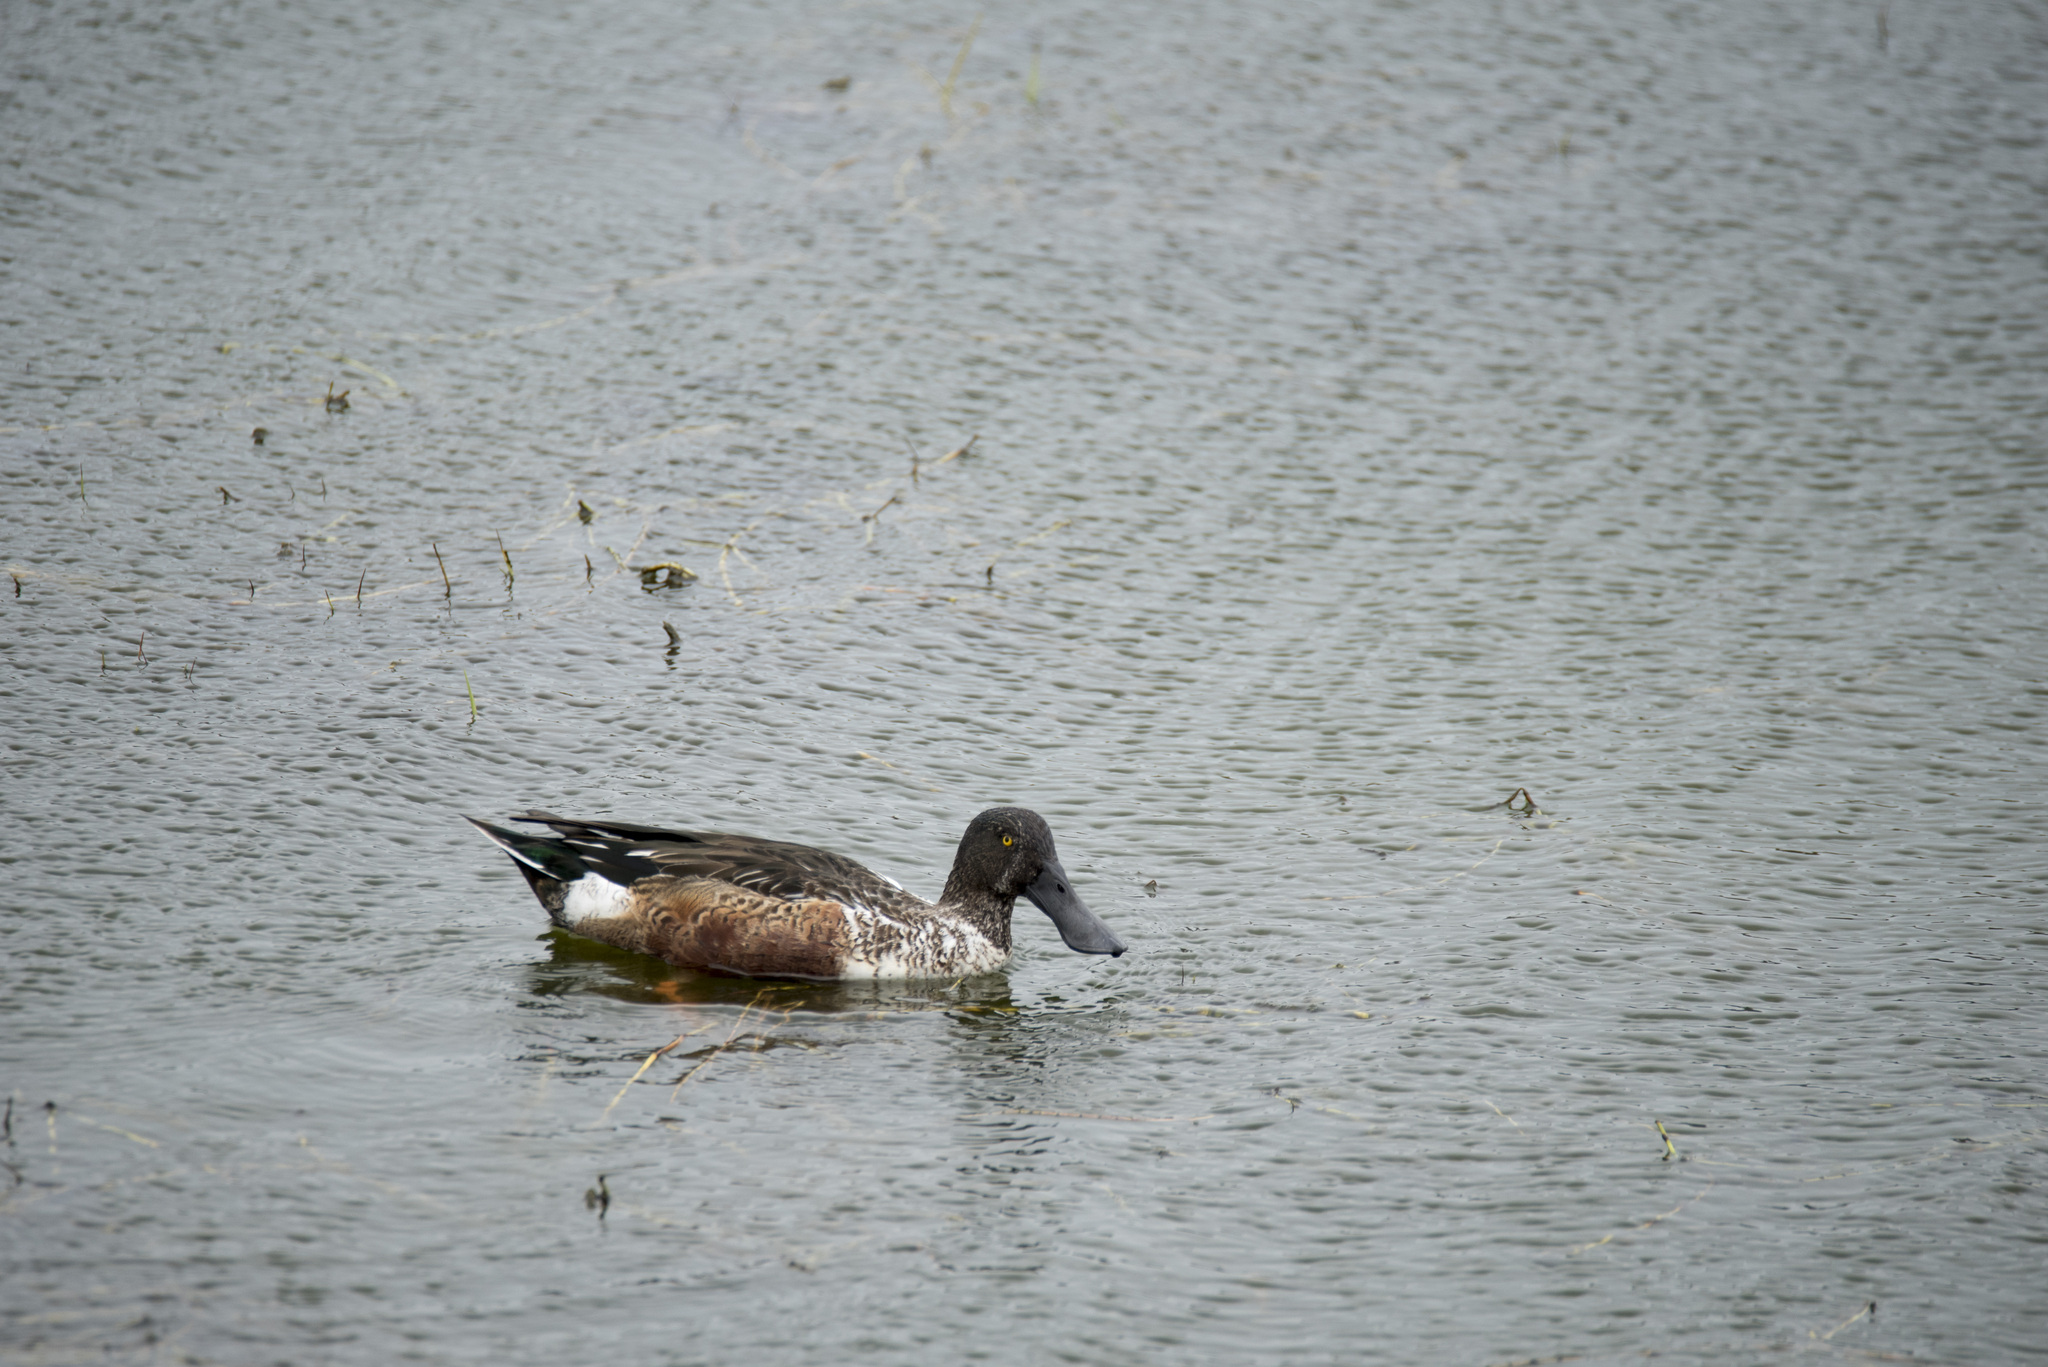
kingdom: Animalia
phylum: Chordata
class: Aves
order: Anseriformes
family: Anatidae
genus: Spatula
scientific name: Spatula clypeata
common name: Northern shoveler
